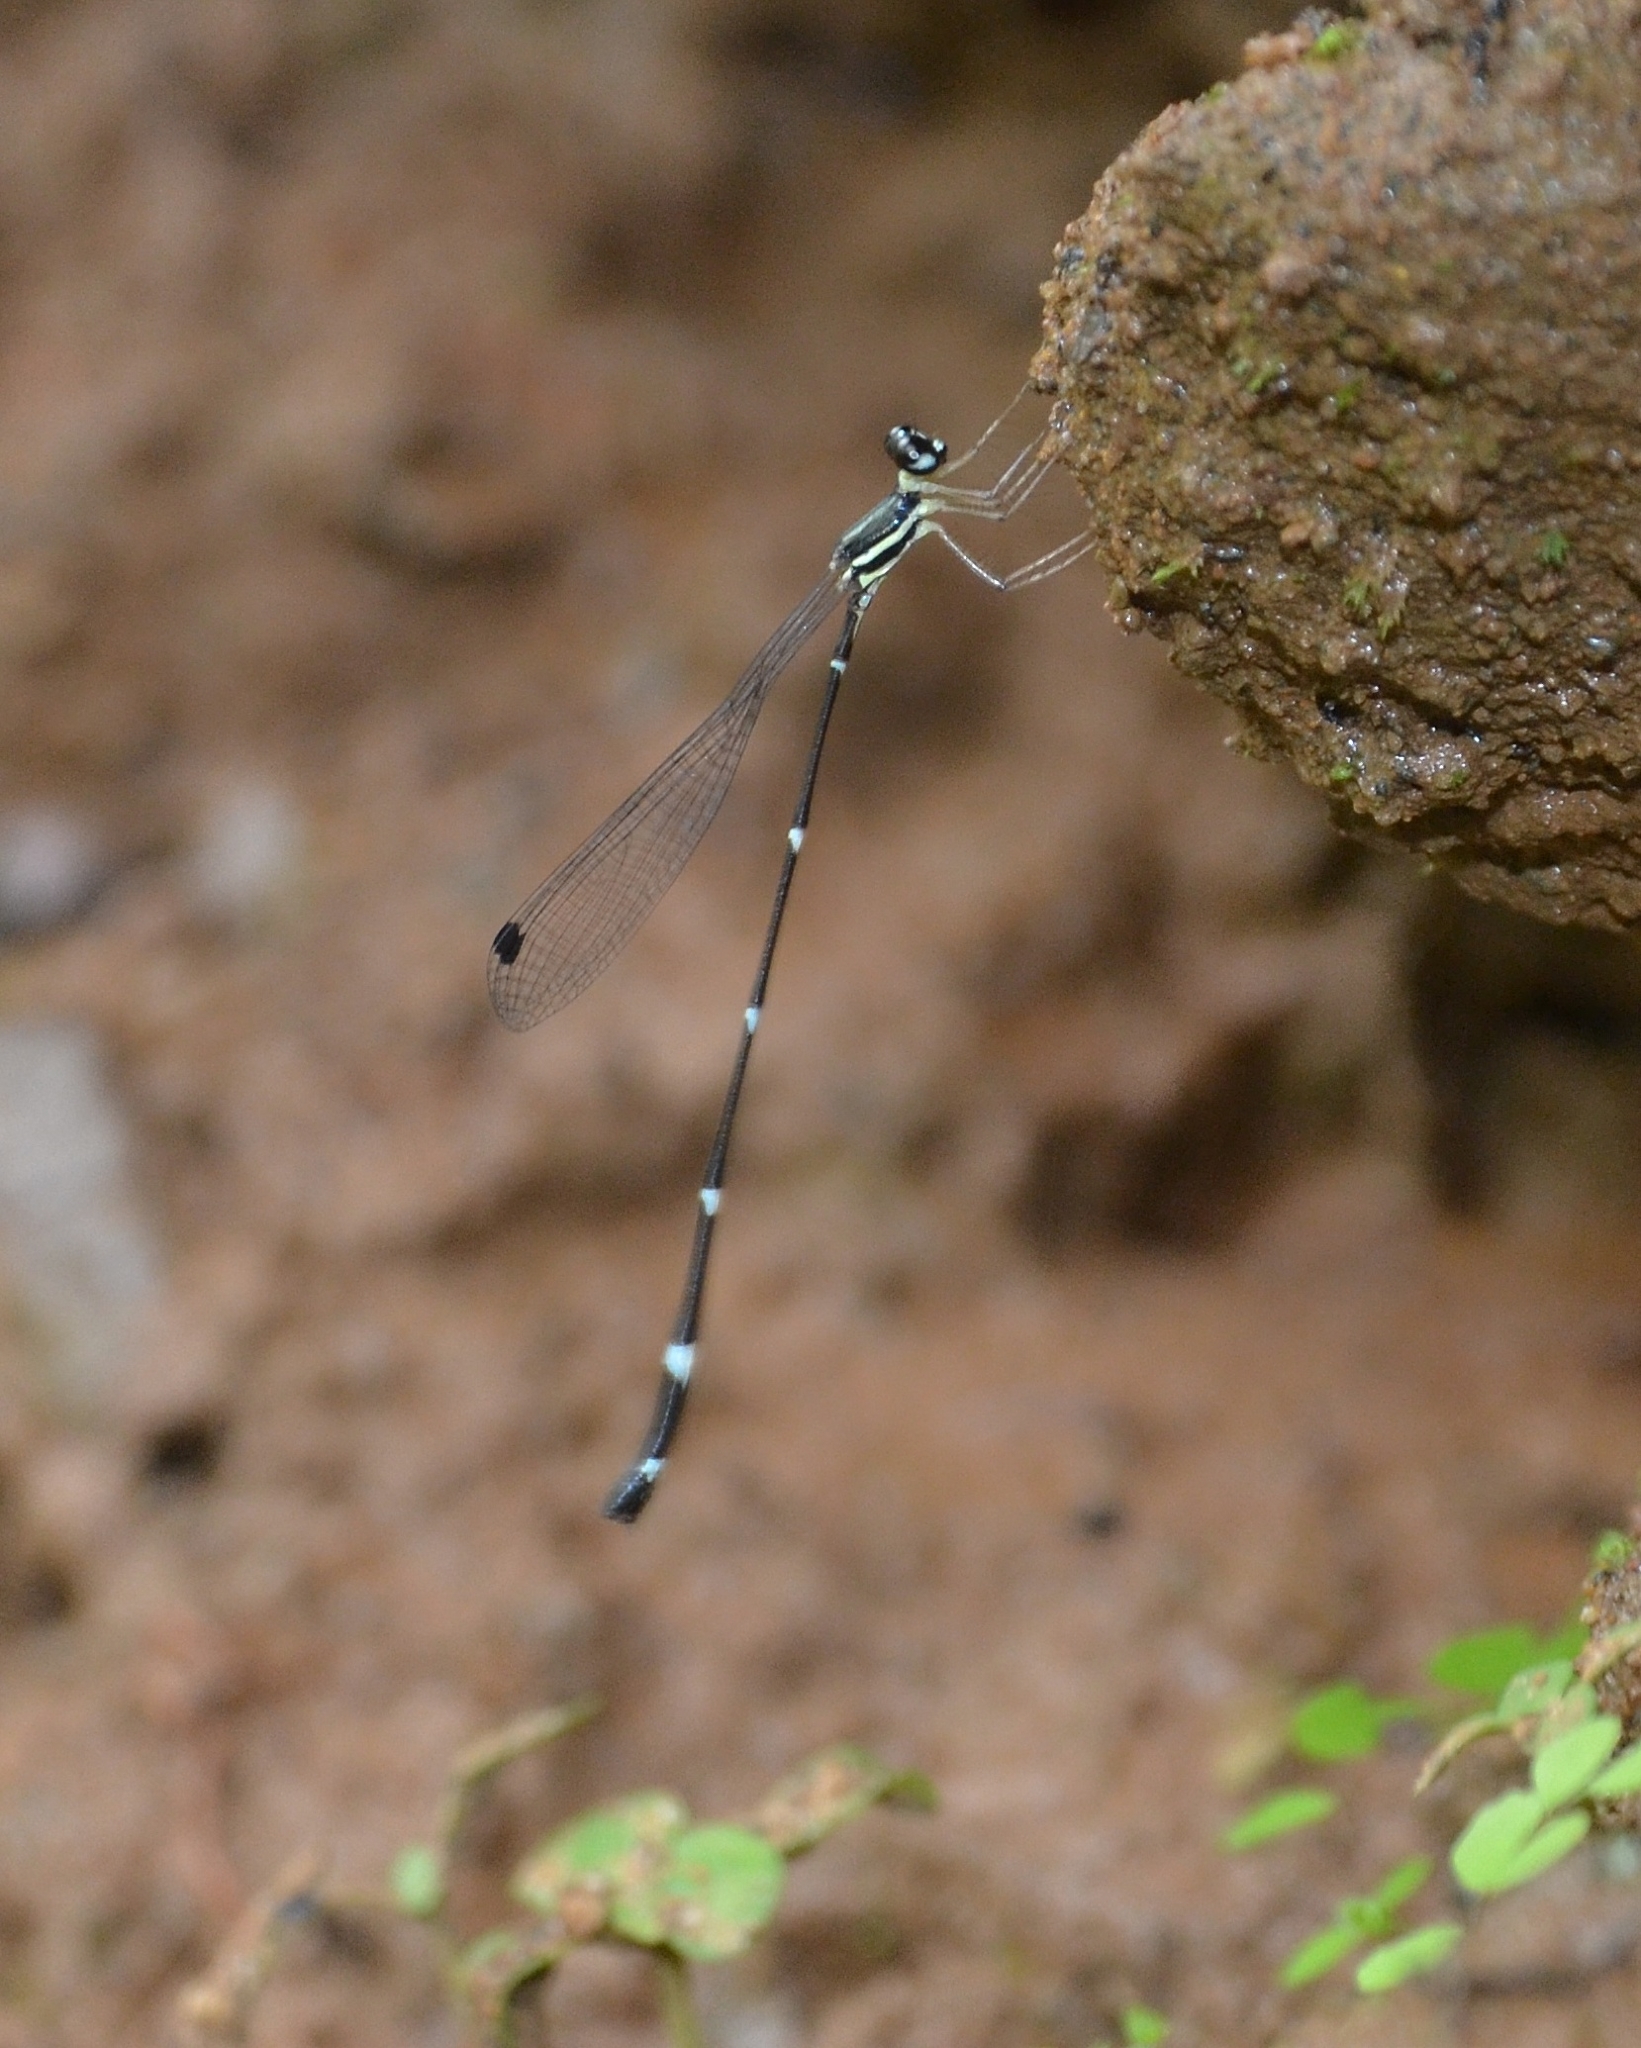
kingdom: Animalia
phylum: Arthropoda
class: Insecta
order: Odonata
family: Platystictidae
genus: Protosticta
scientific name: Protosticta gravelyi
